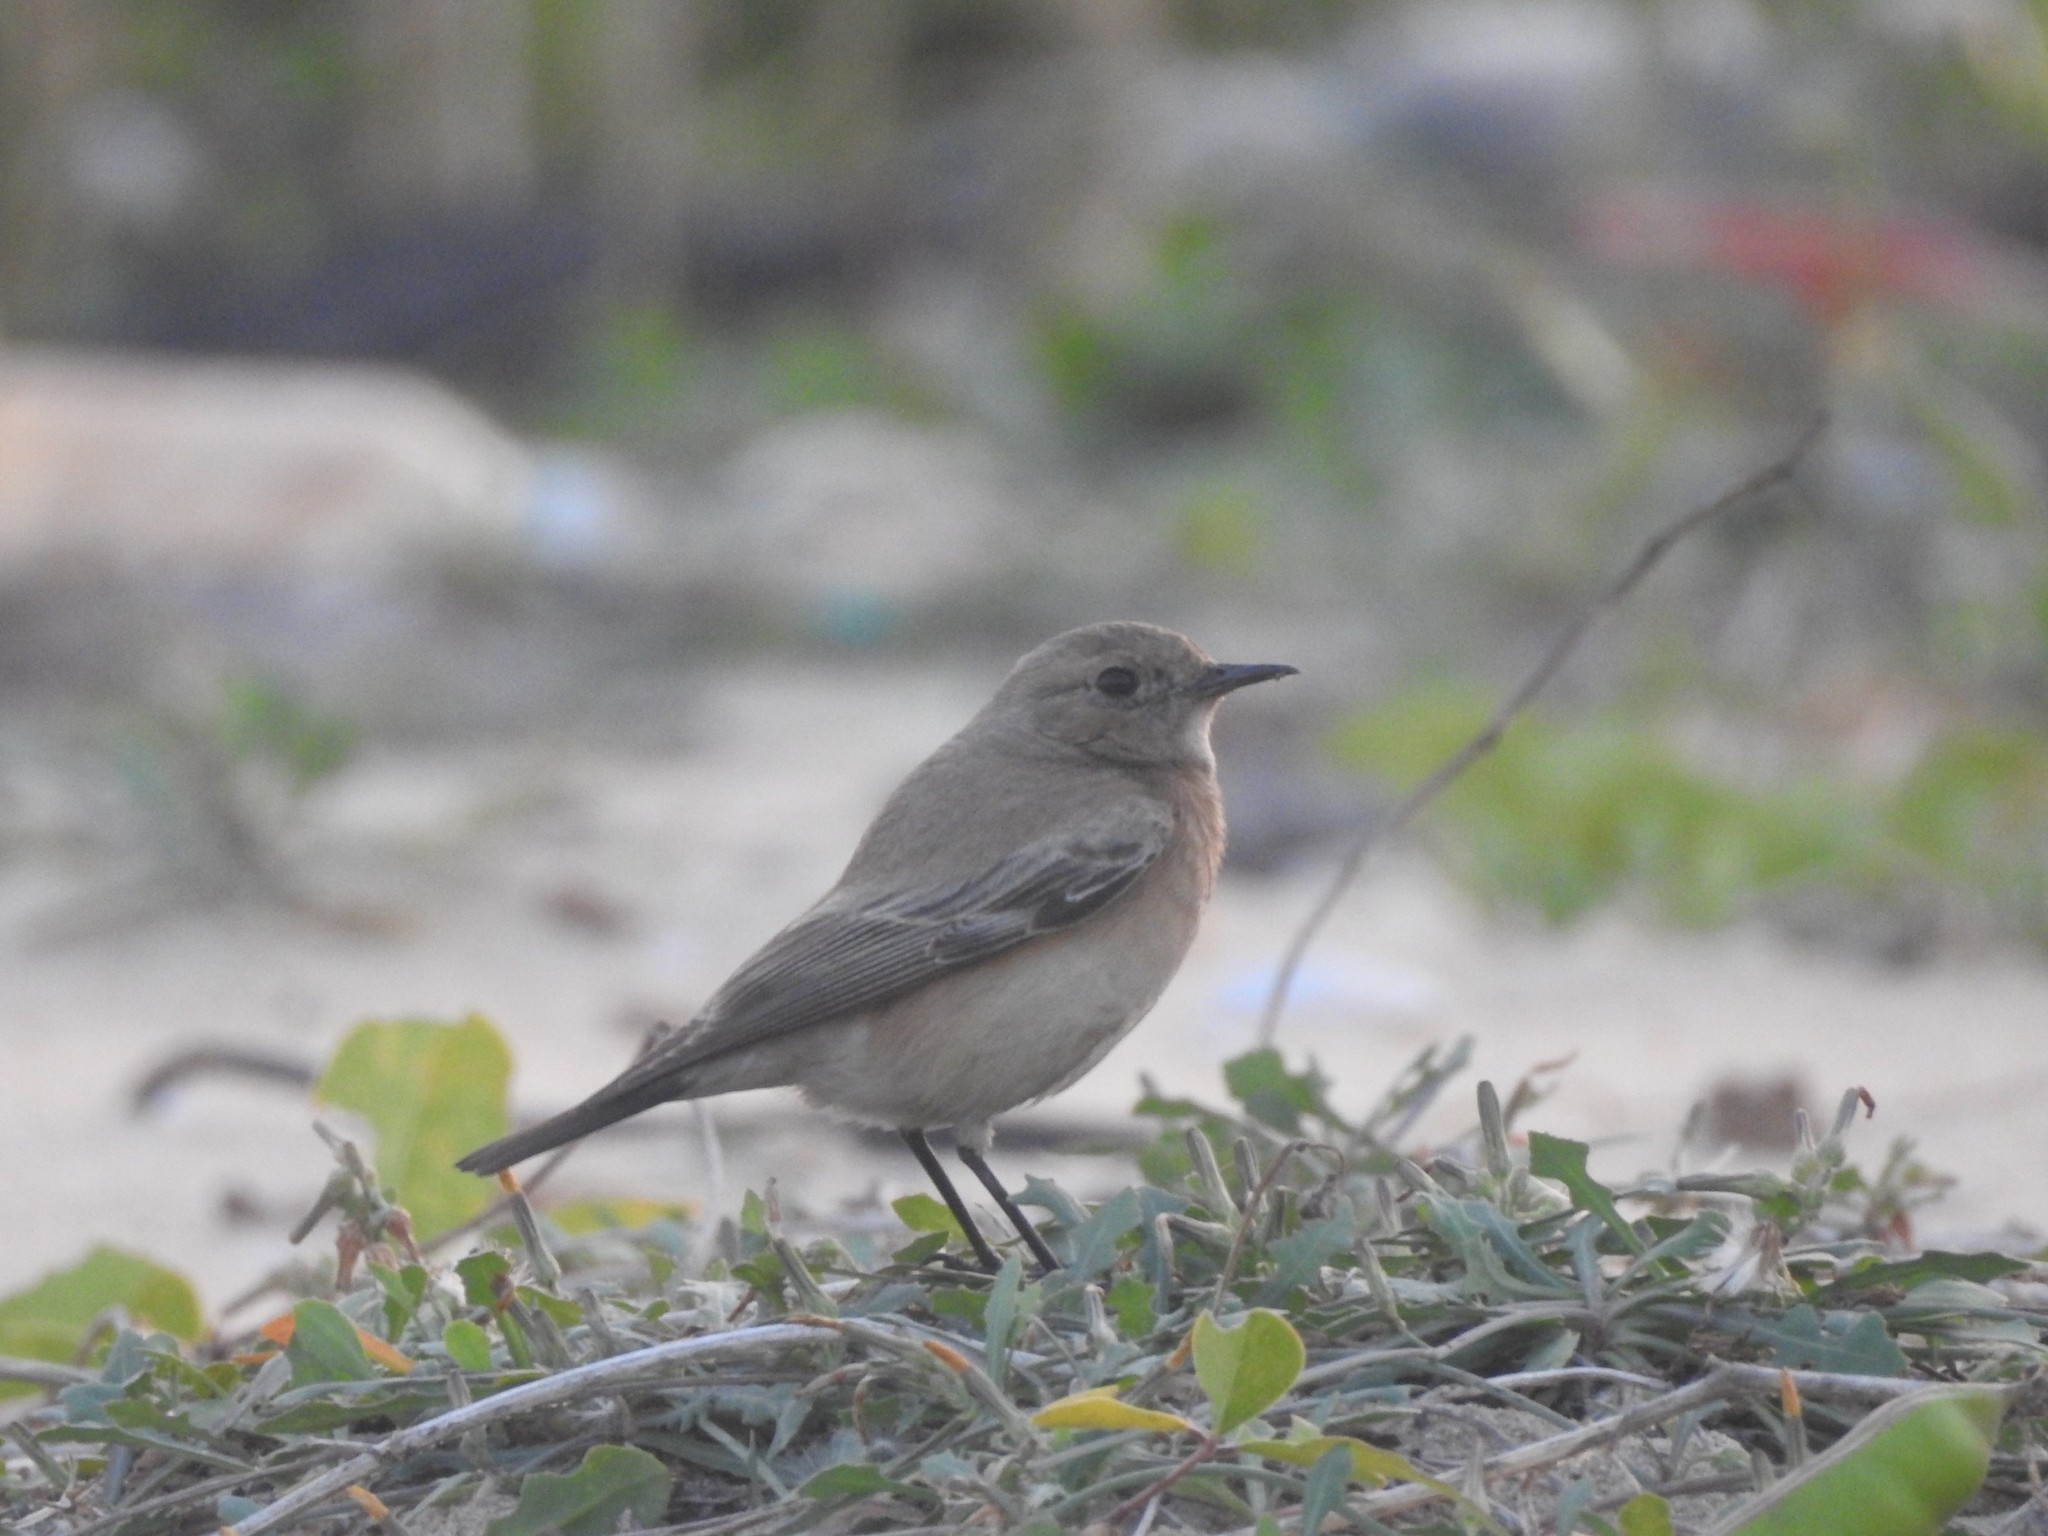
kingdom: Animalia
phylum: Chordata
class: Aves
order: Passeriformes
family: Muscicapidae
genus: Oenanthe
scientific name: Oenanthe deserti
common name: Desert wheatear
